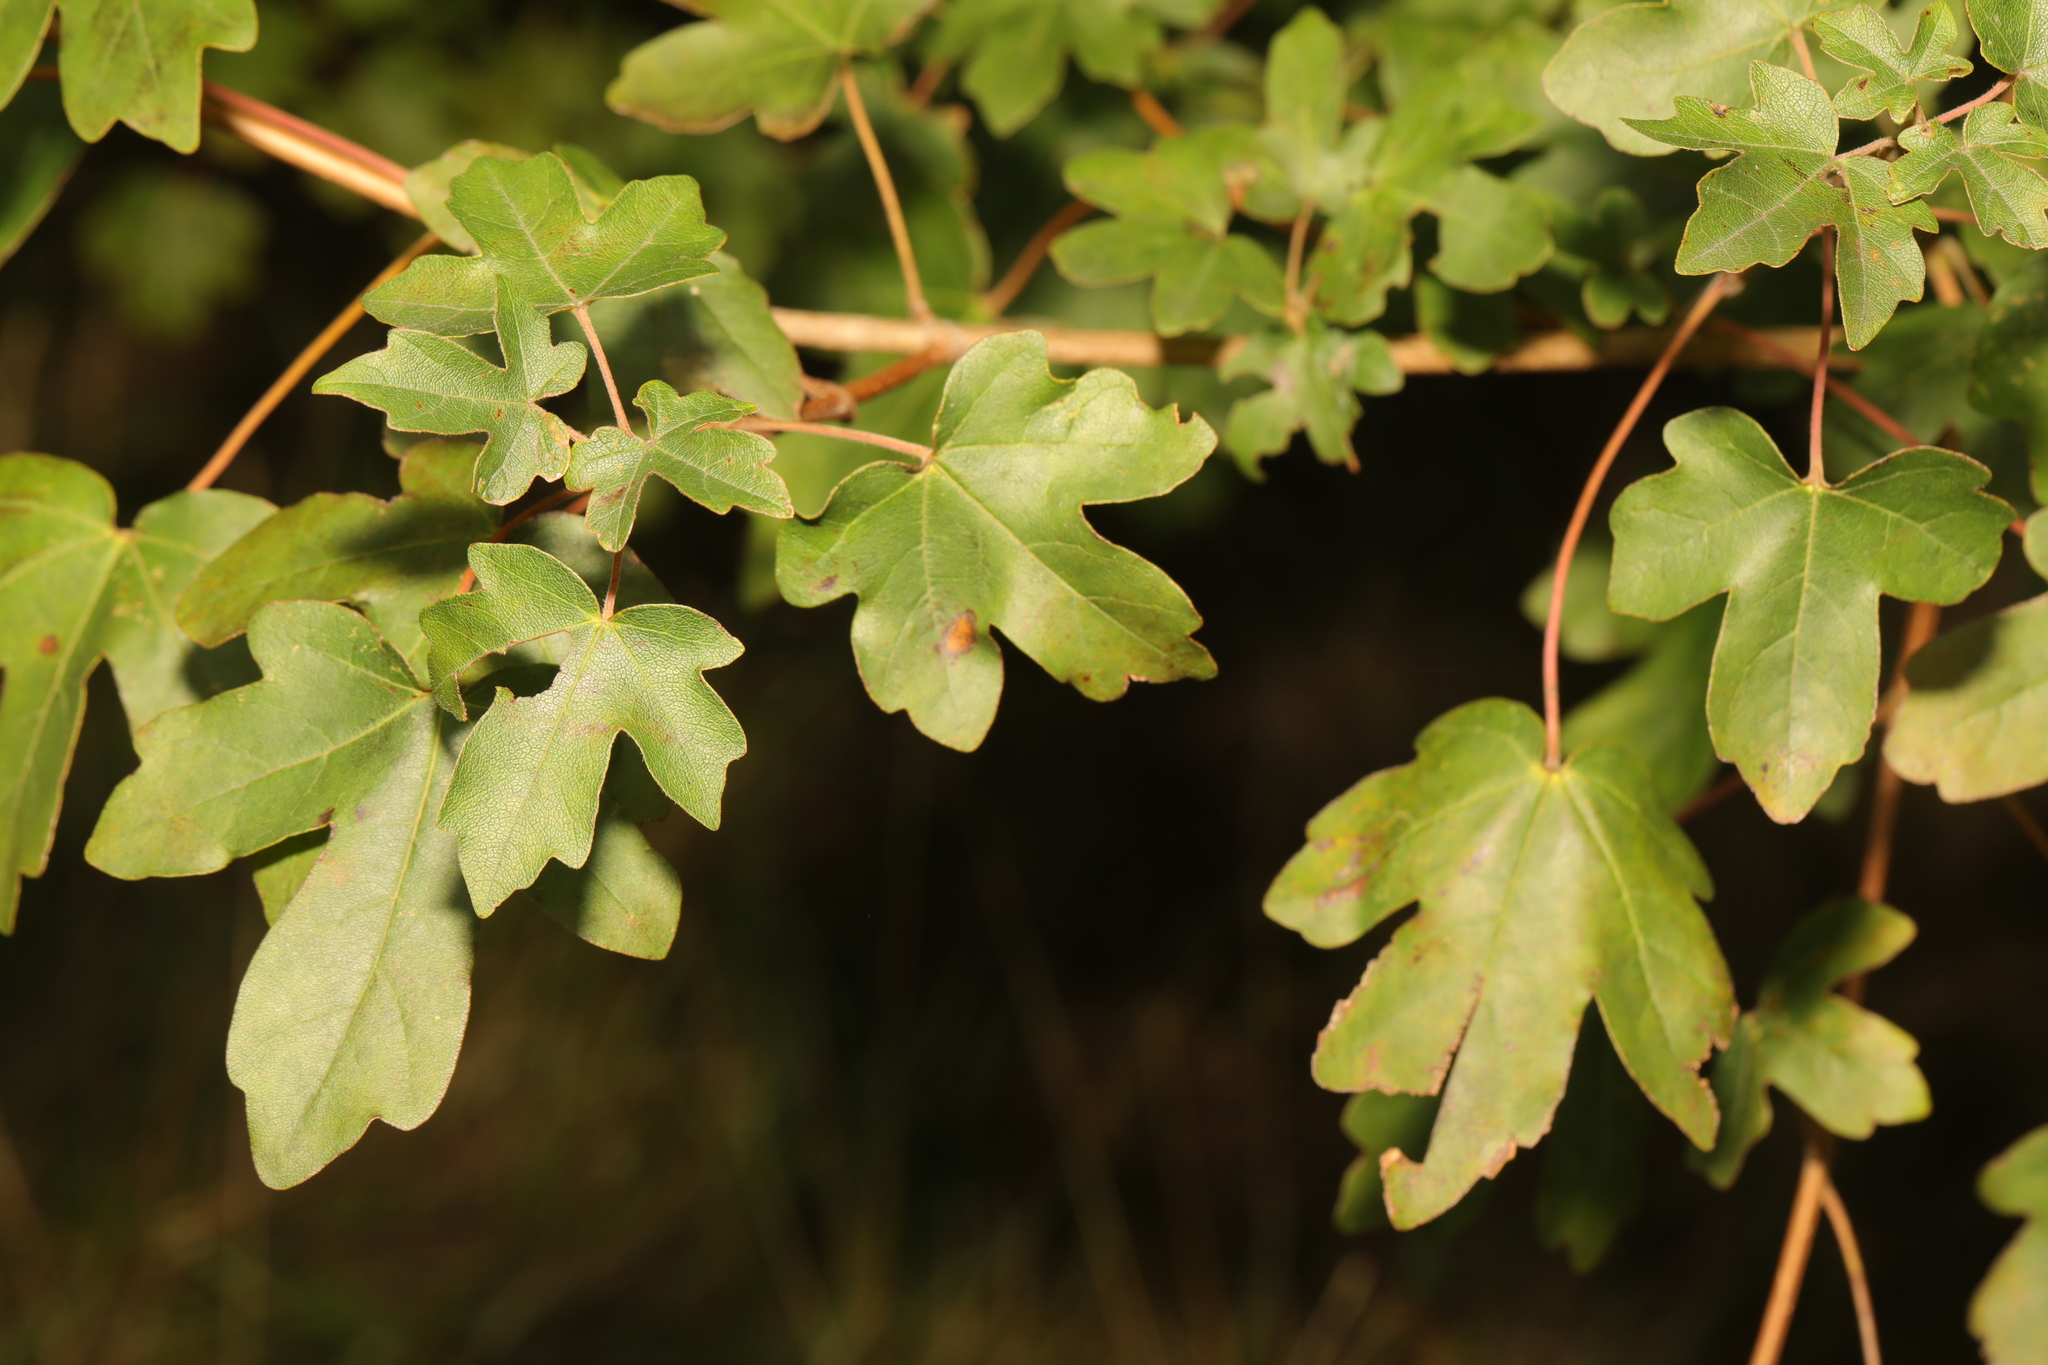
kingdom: Plantae
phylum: Tracheophyta
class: Magnoliopsida
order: Sapindales
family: Sapindaceae
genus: Acer
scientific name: Acer campestre
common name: Field maple
